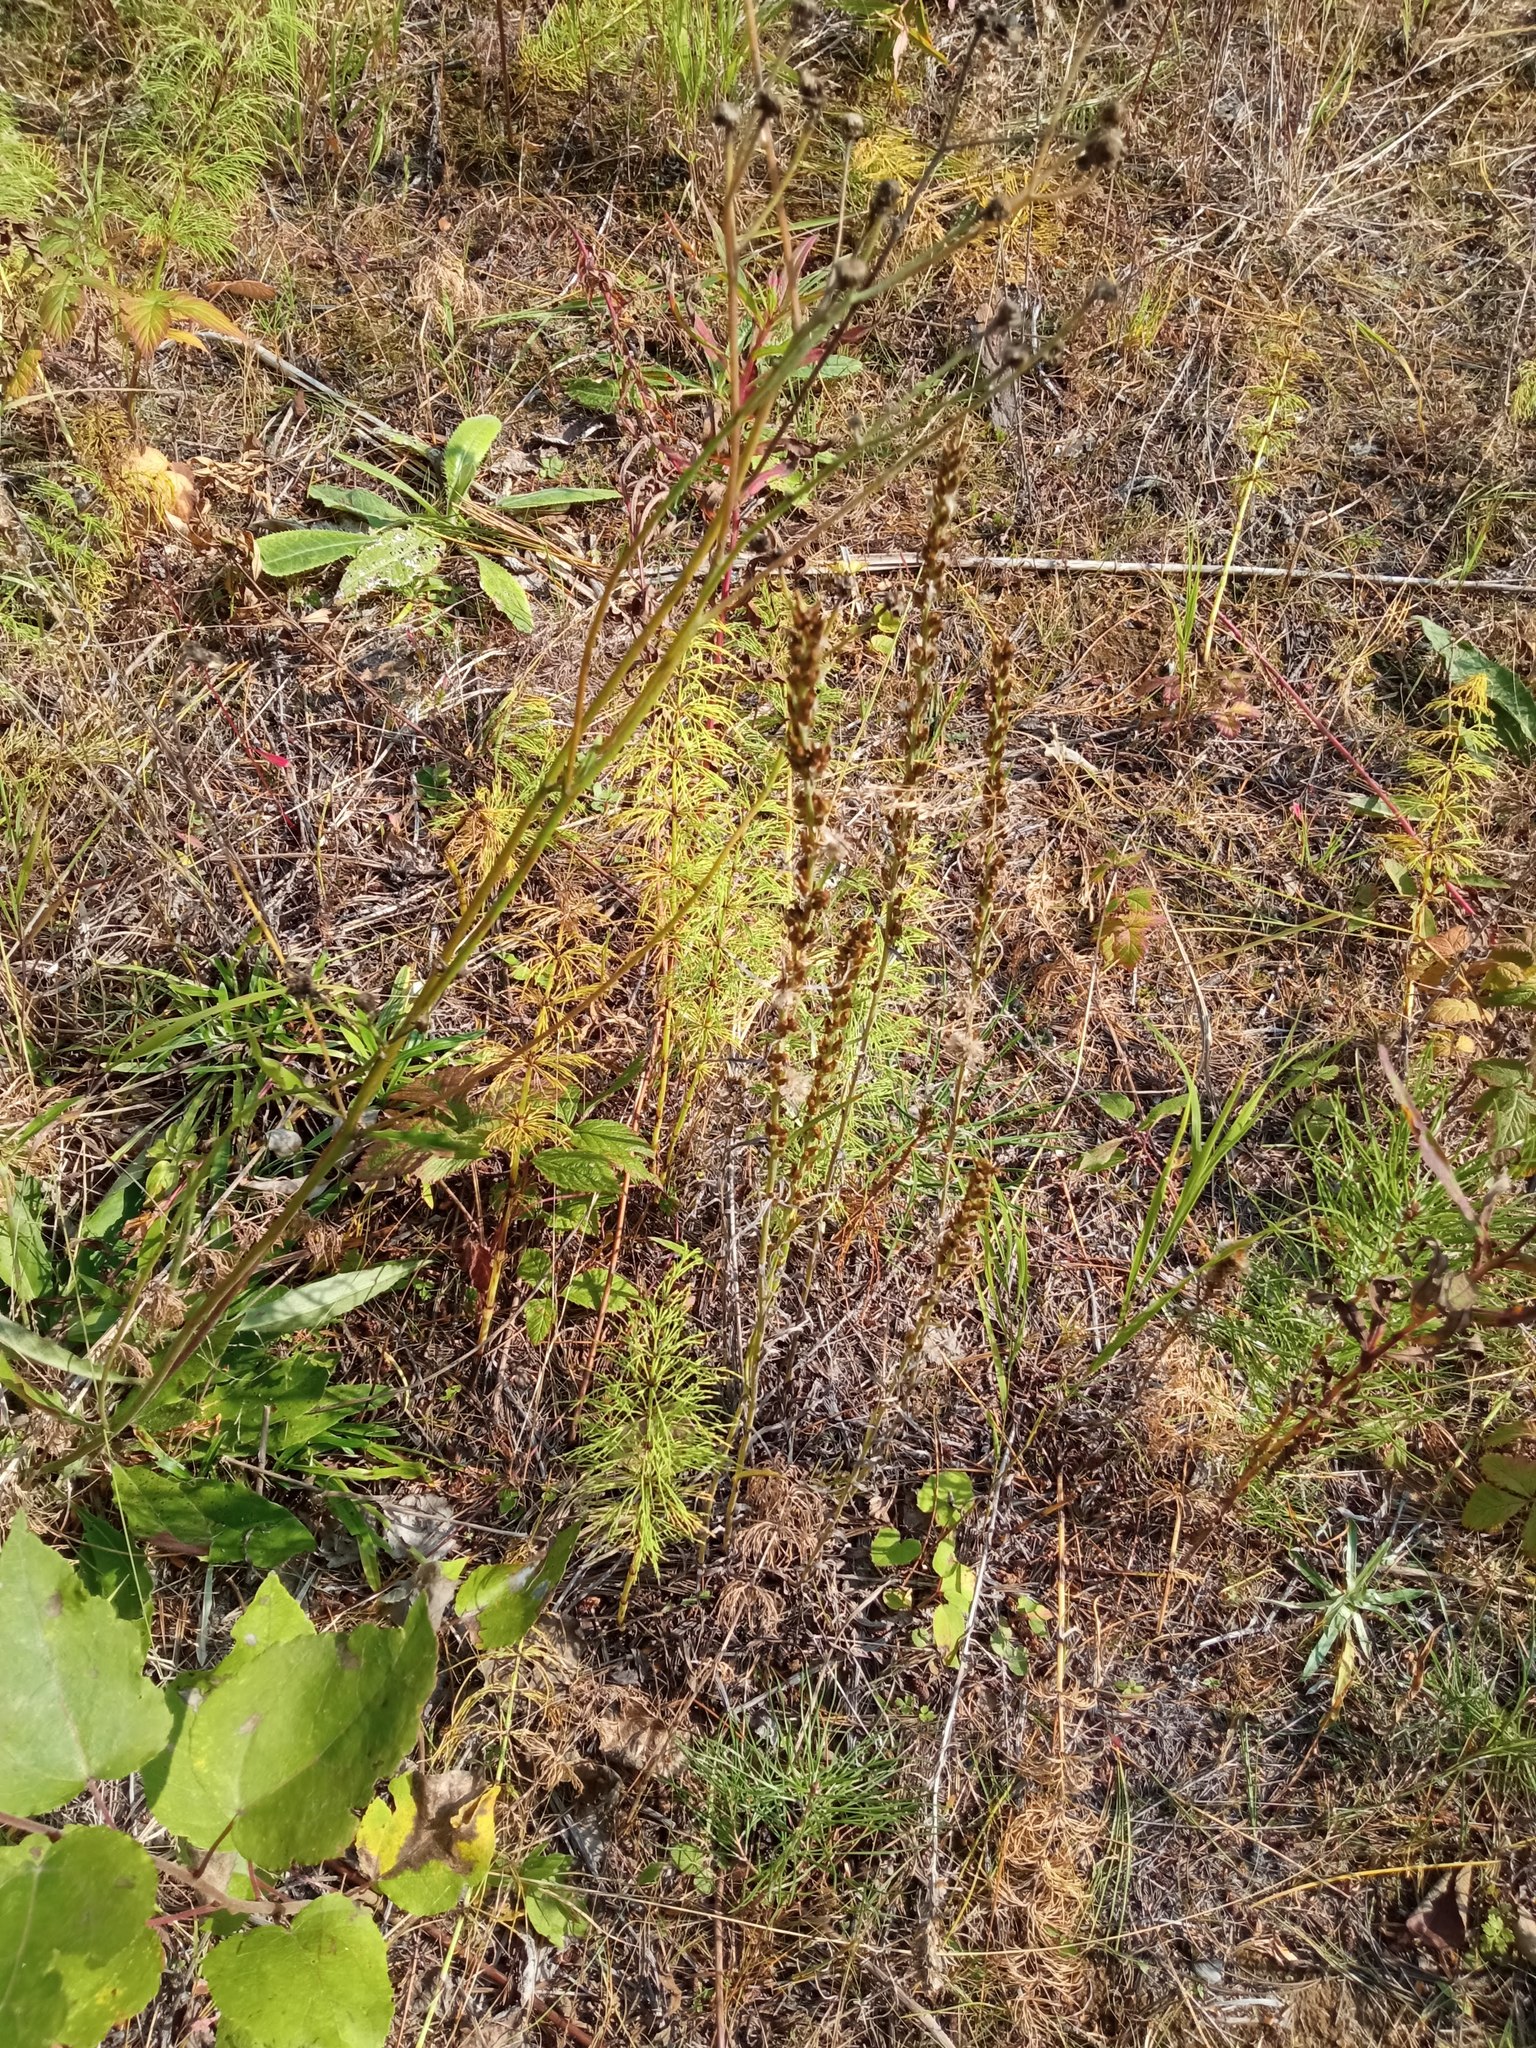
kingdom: Plantae
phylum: Tracheophyta
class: Magnoliopsida
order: Asterales
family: Asteraceae
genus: Omalotheca
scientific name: Omalotheca sylvatica
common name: Heath cudweed
